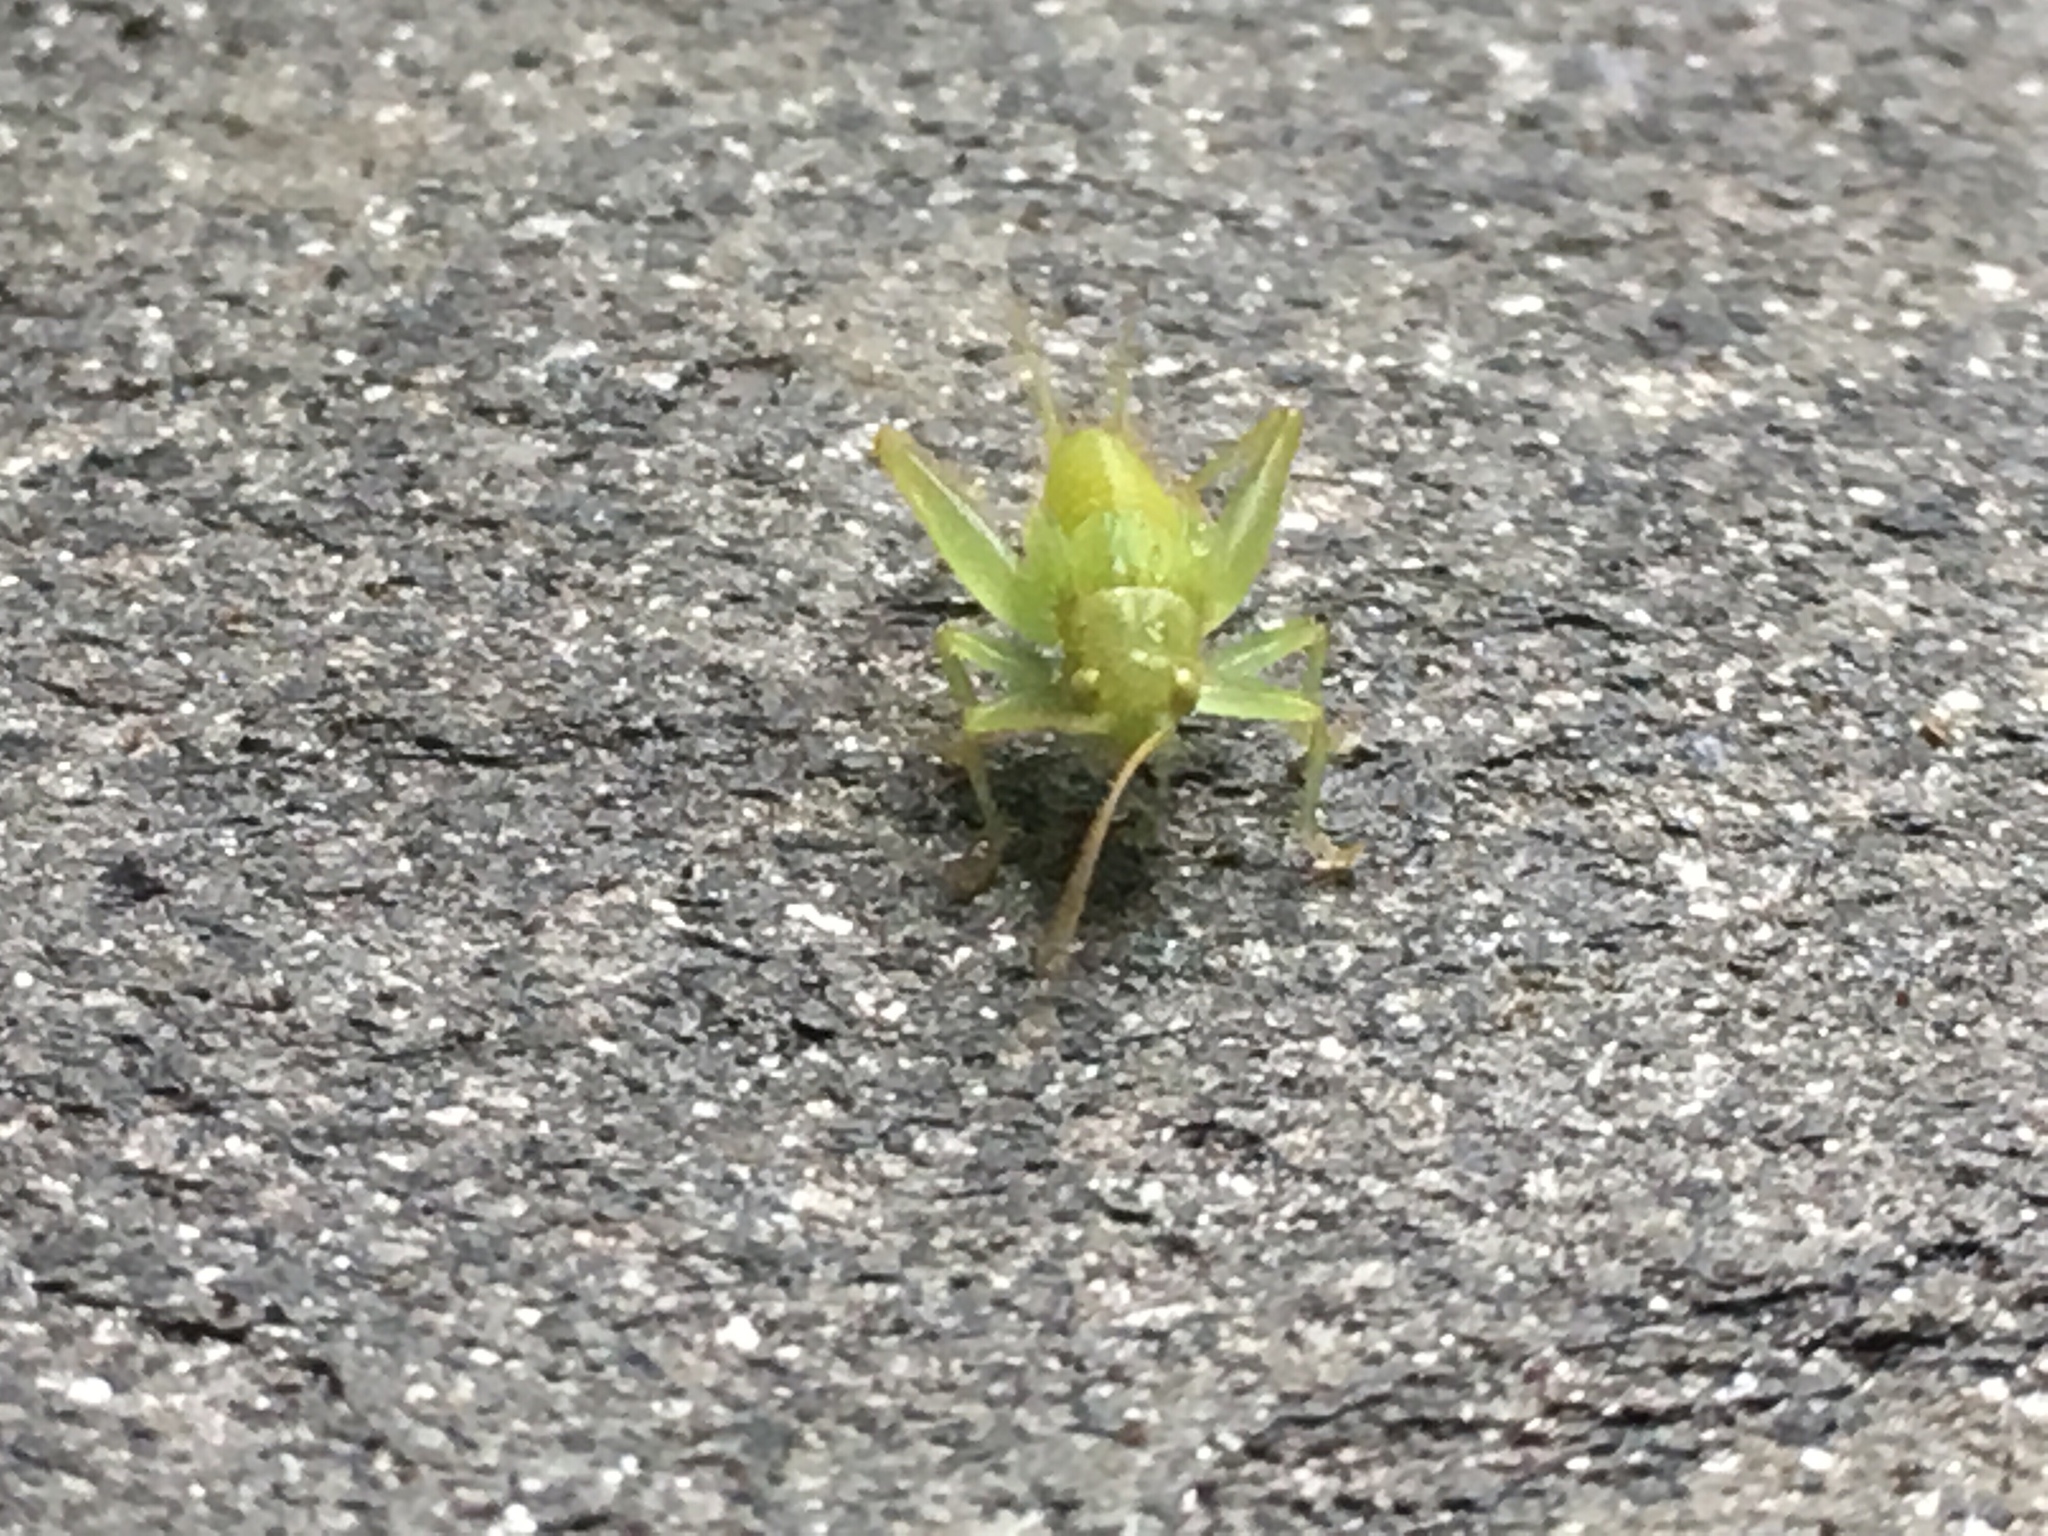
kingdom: Animalia
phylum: Arthropoda
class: Insecta
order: Orthoptera
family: Trigonidiidae
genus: Cyrtoxipha
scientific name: Cyrtoxipha columbiana
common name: Columbian trig
